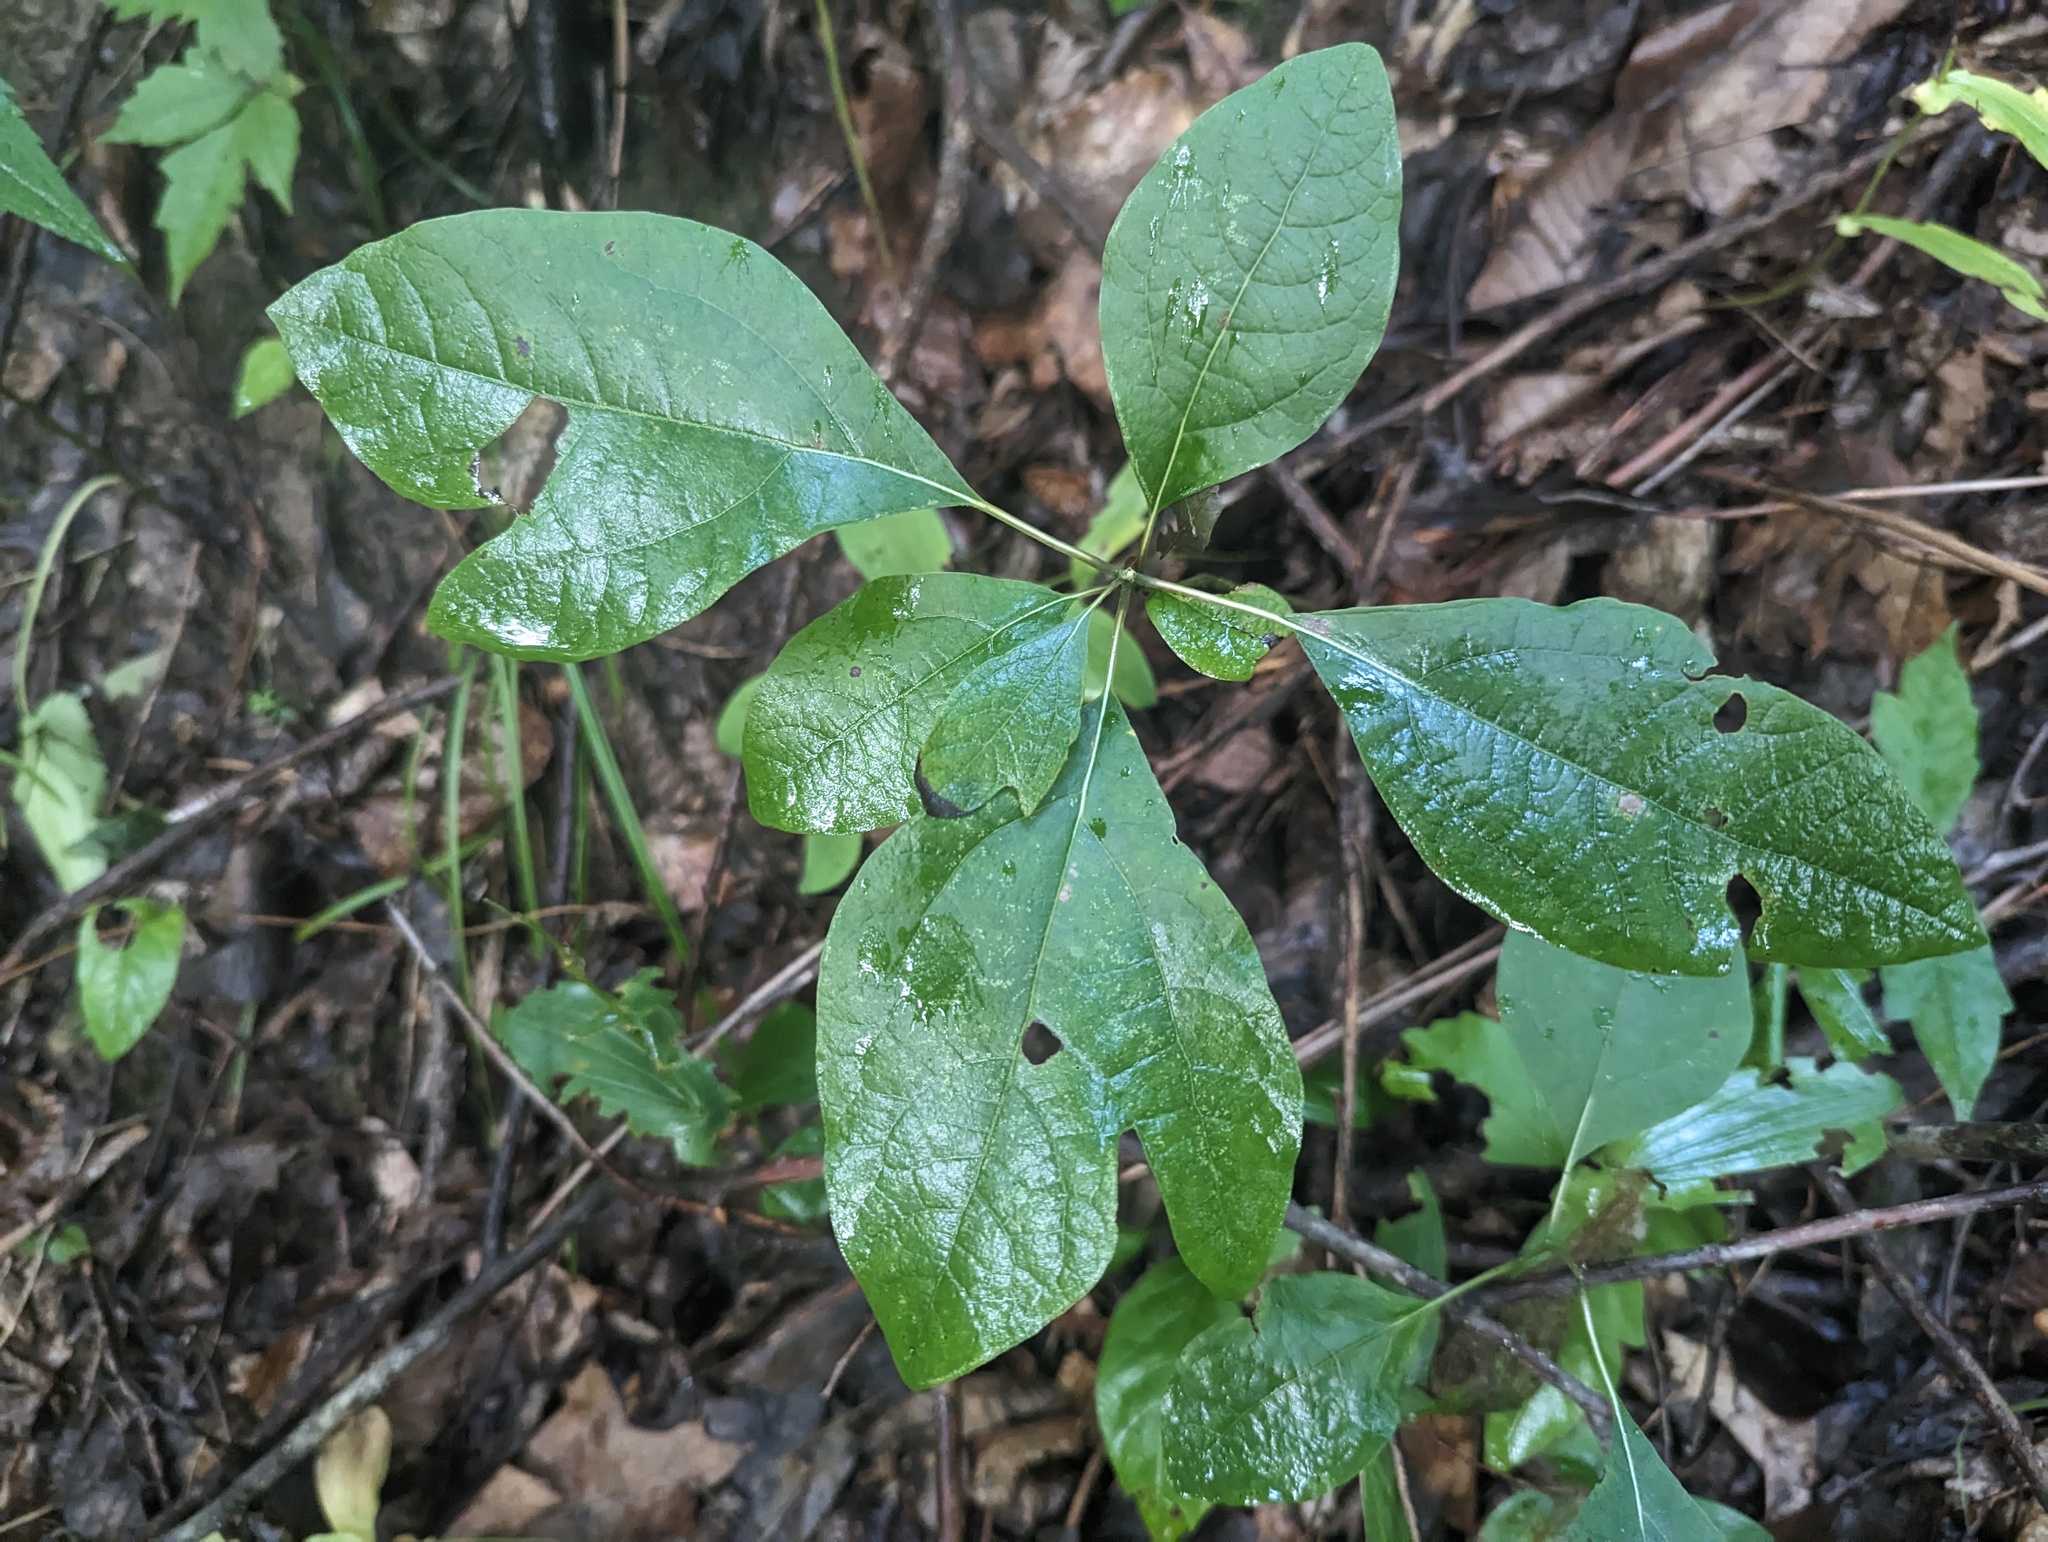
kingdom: Plantae
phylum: Tracheophyta
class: Magnoliopsida
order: Laurales
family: Lauraceae
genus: Sassafras
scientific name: Sassafras albidum
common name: Sassafras
